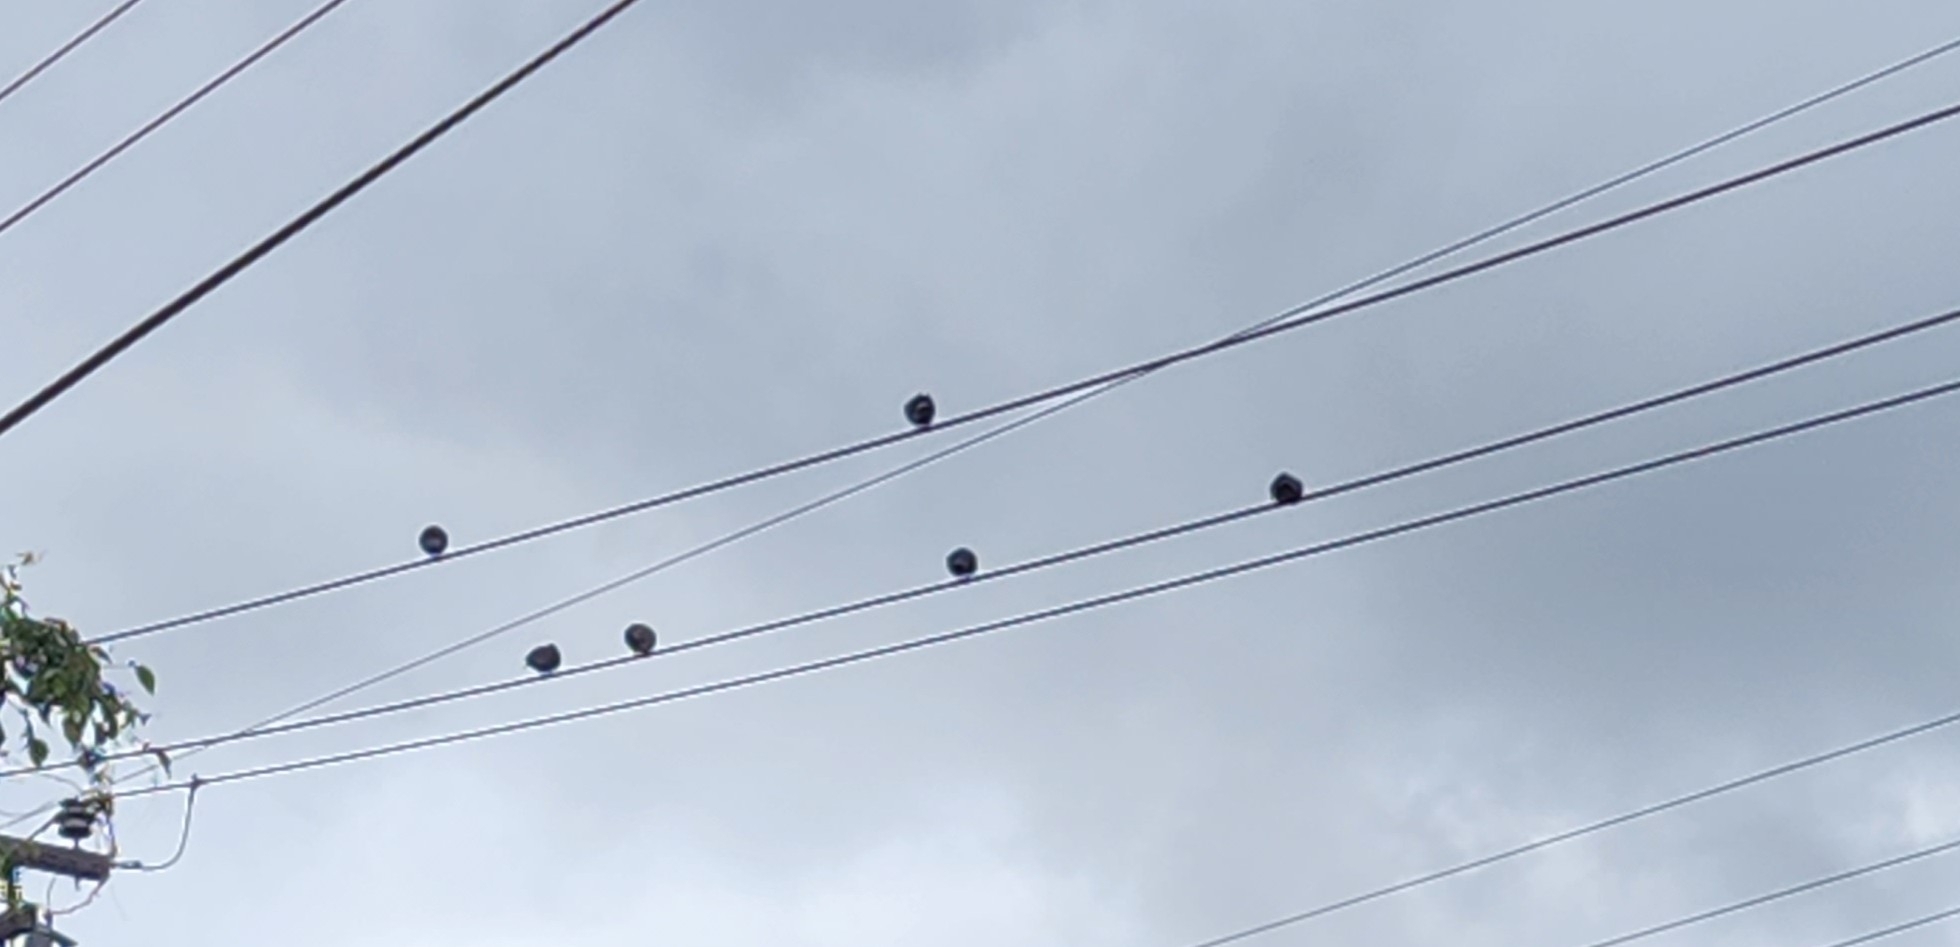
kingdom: Animalia
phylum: Chordata
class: Aves
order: Columbiformes
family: Columbidae
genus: Columba
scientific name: Columba livia
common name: Rock pigeon
